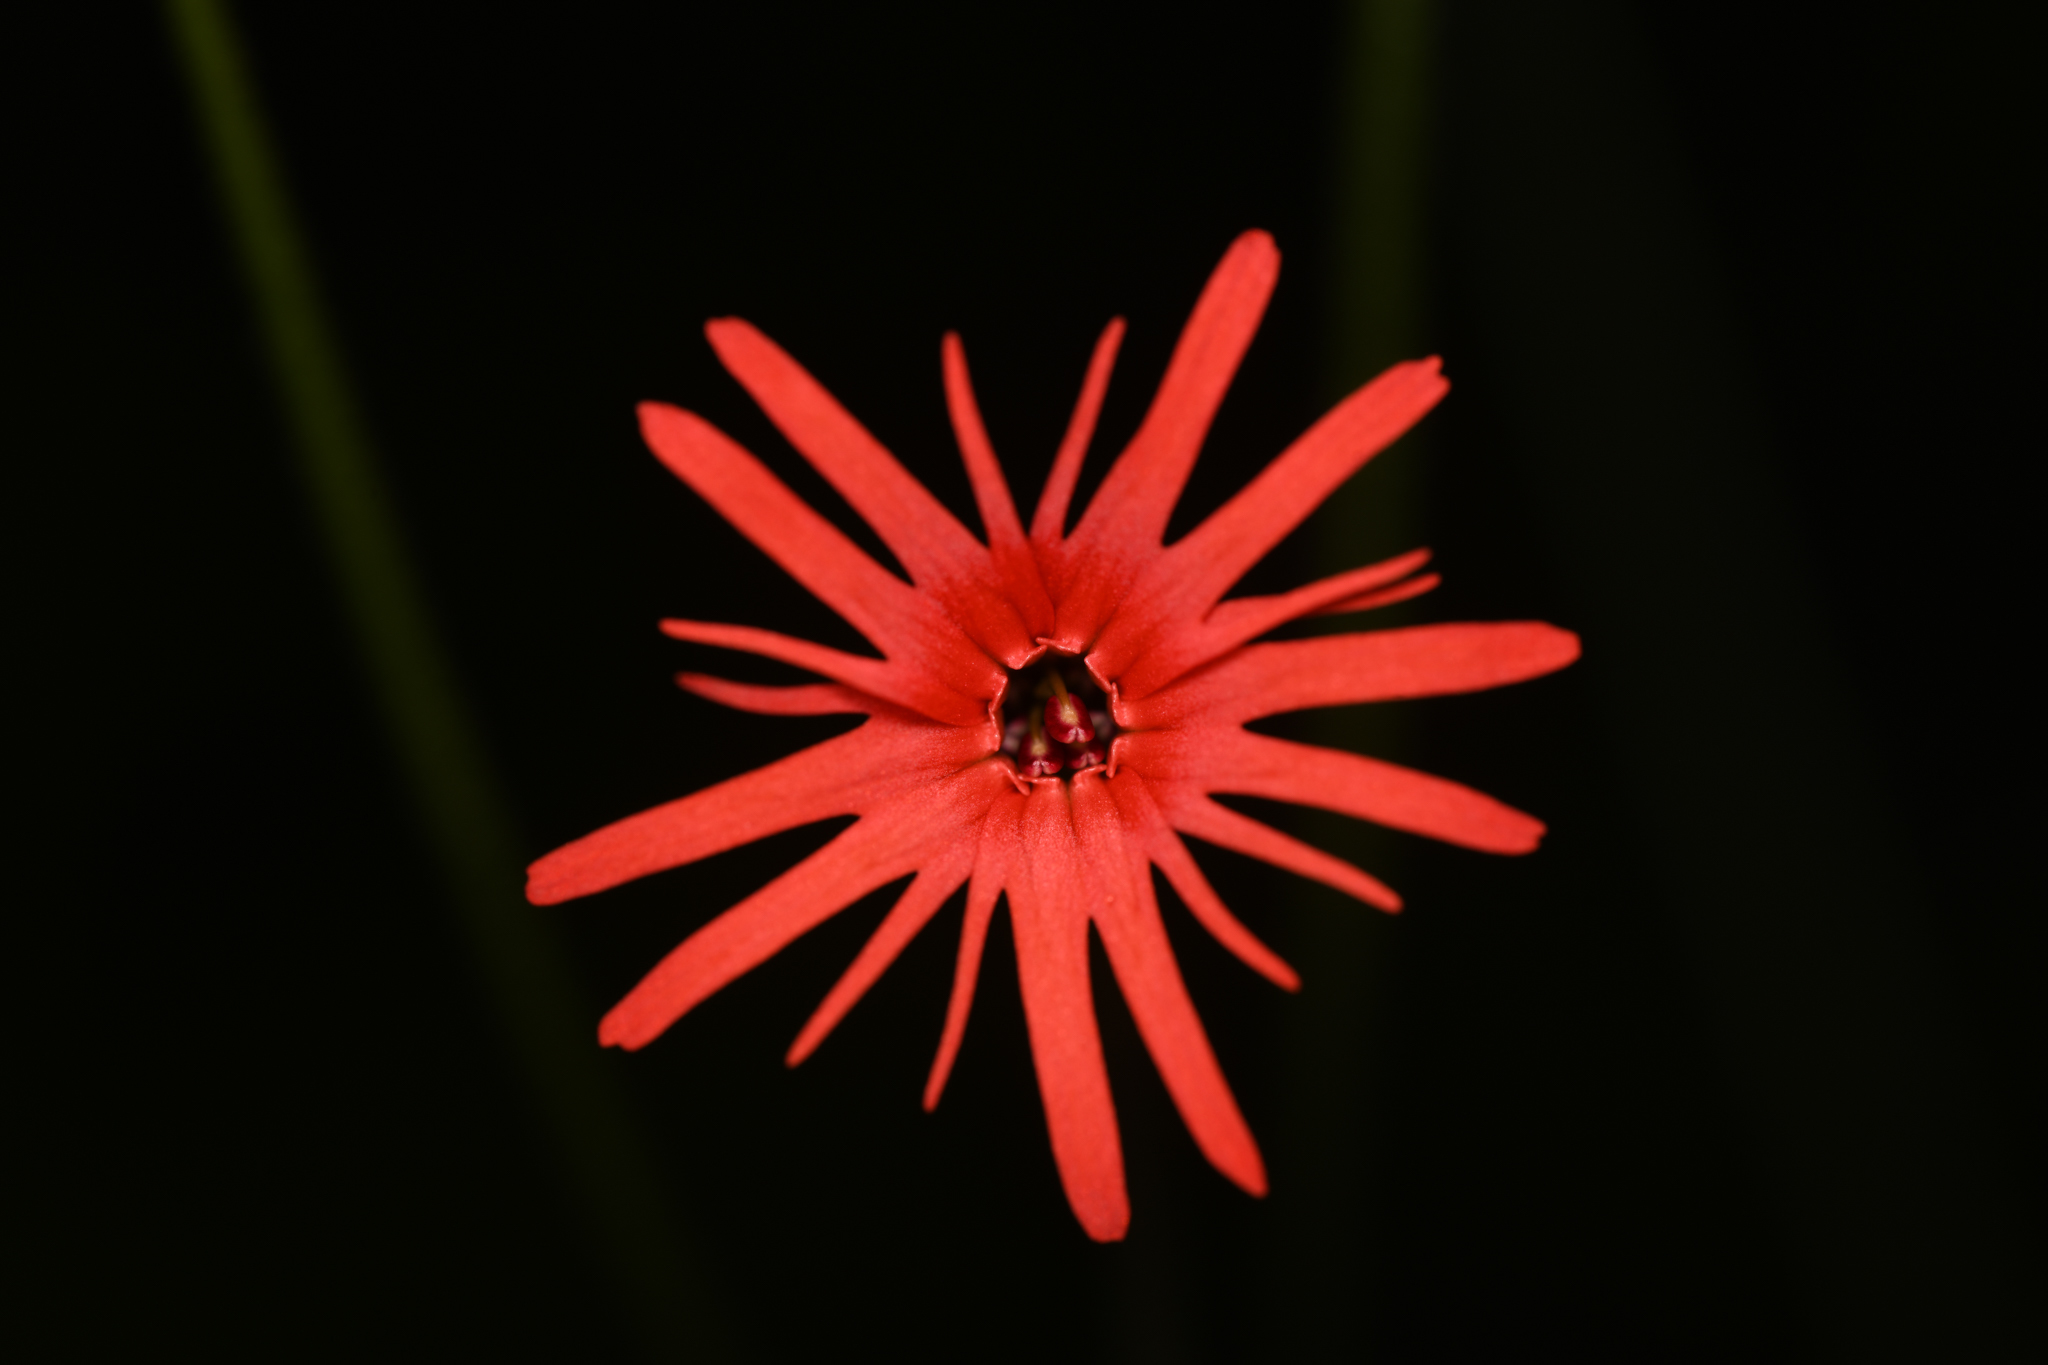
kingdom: Plantae
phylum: Tracheophyta
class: Magnoliopsida
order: Caryophyllales
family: Caryophyllaceae
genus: Silene
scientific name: Silene laciniata
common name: Indian-pink
